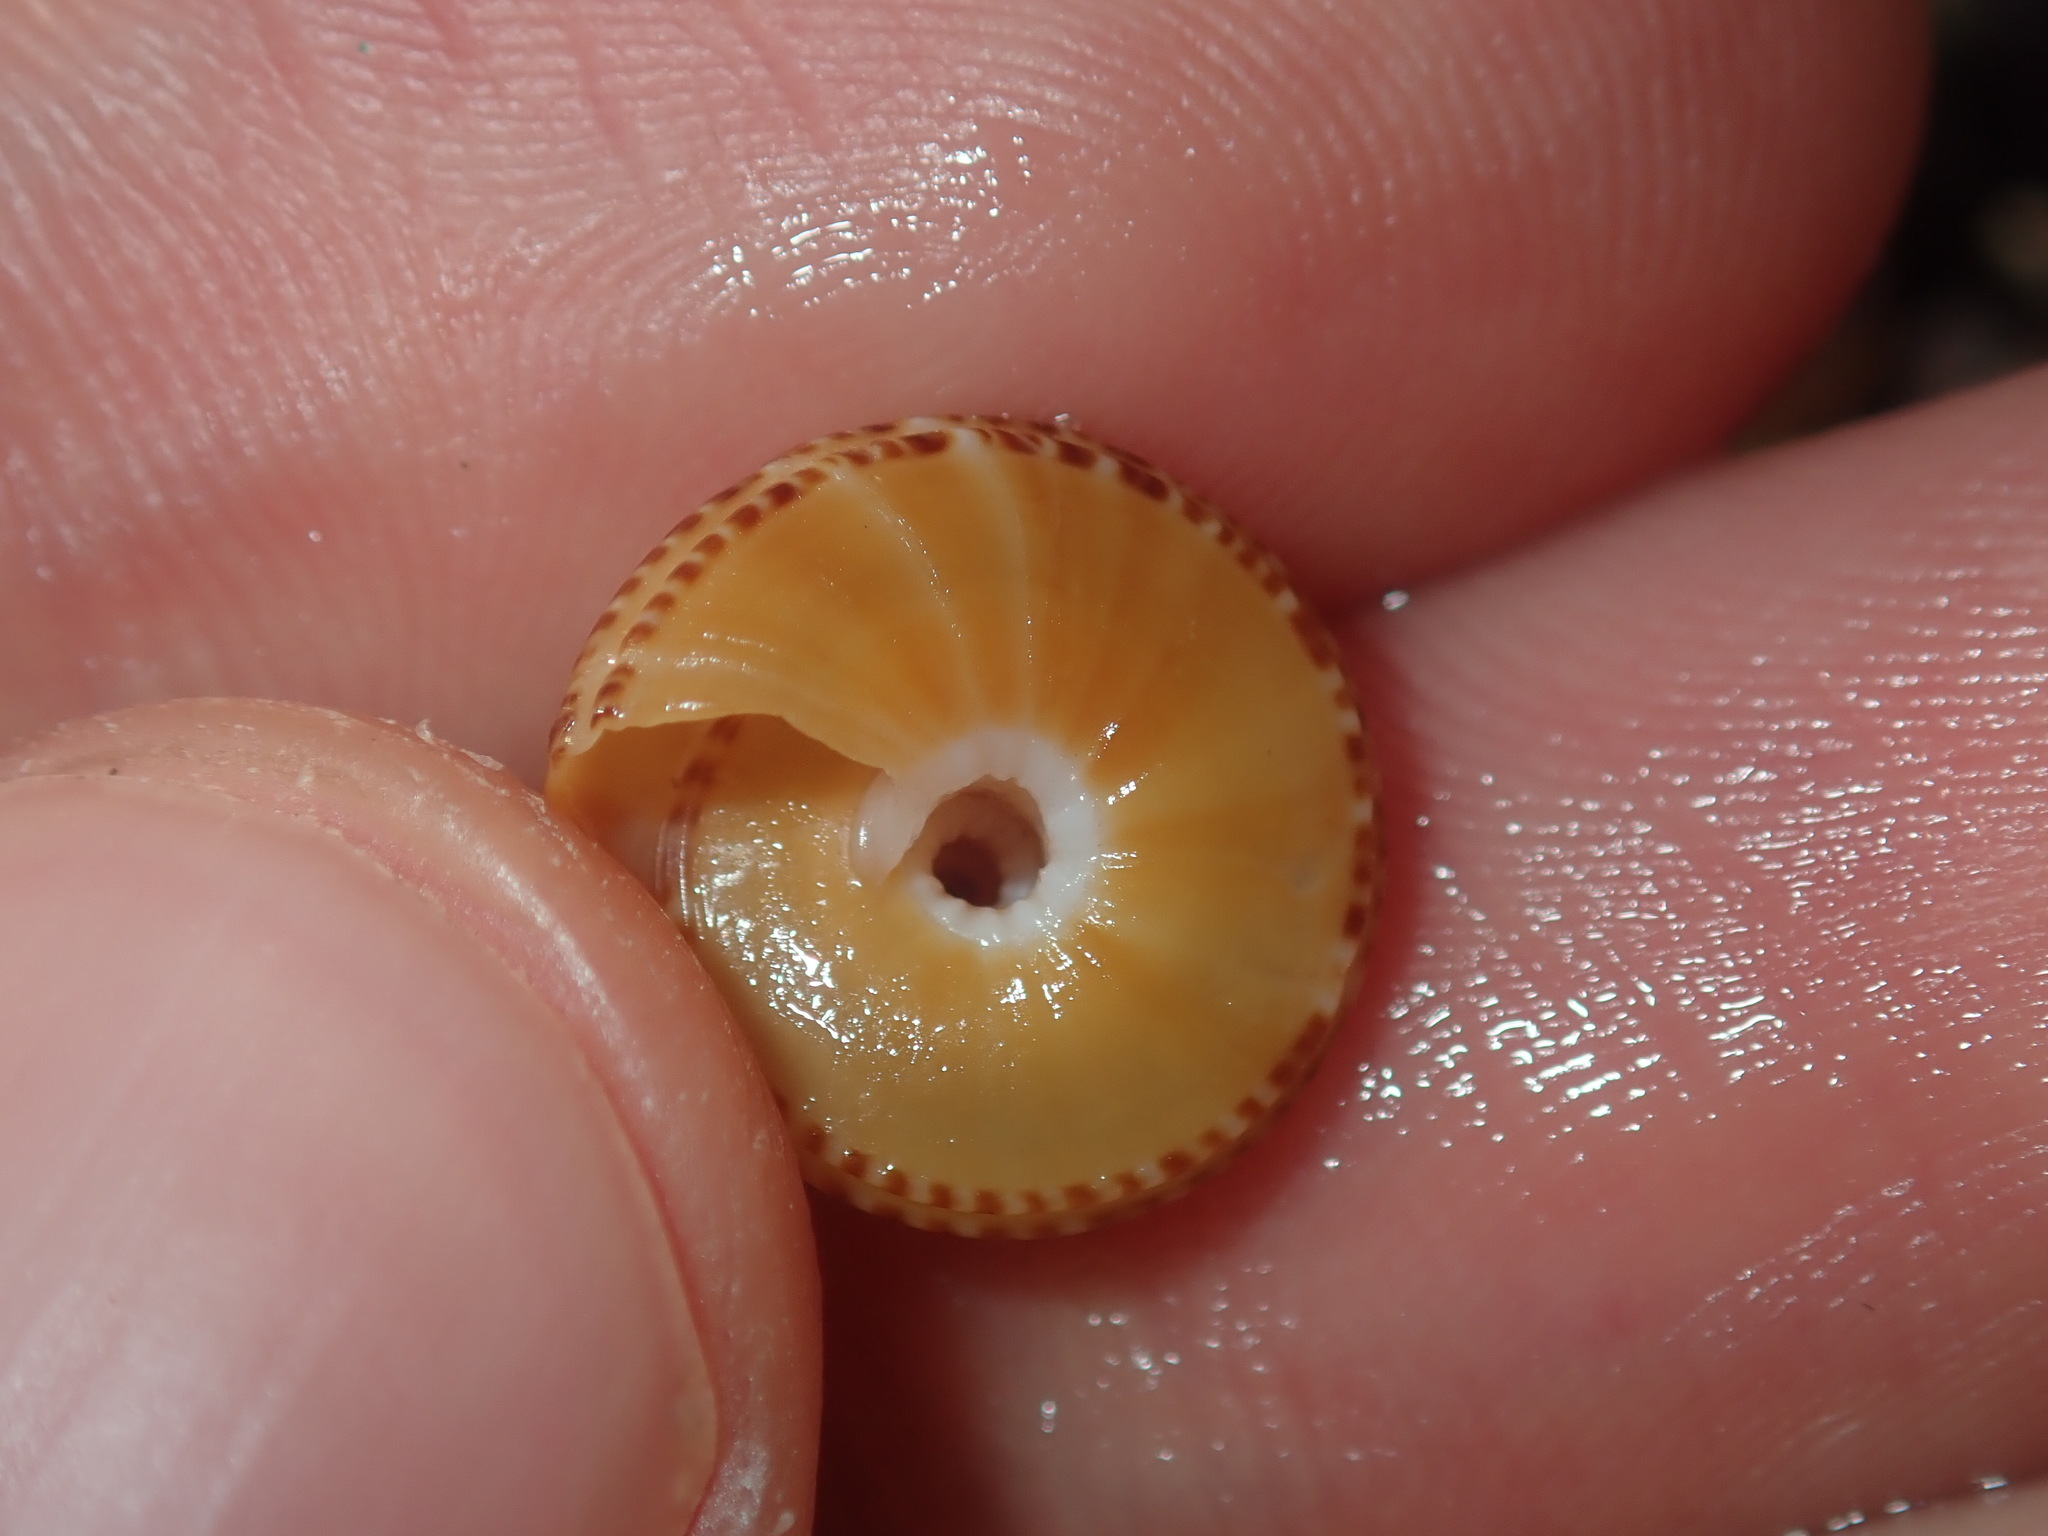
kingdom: Animalia
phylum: Mollusca
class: Gastropoda
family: Architectonicidae
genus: Philippia
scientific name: Philippia lutea
